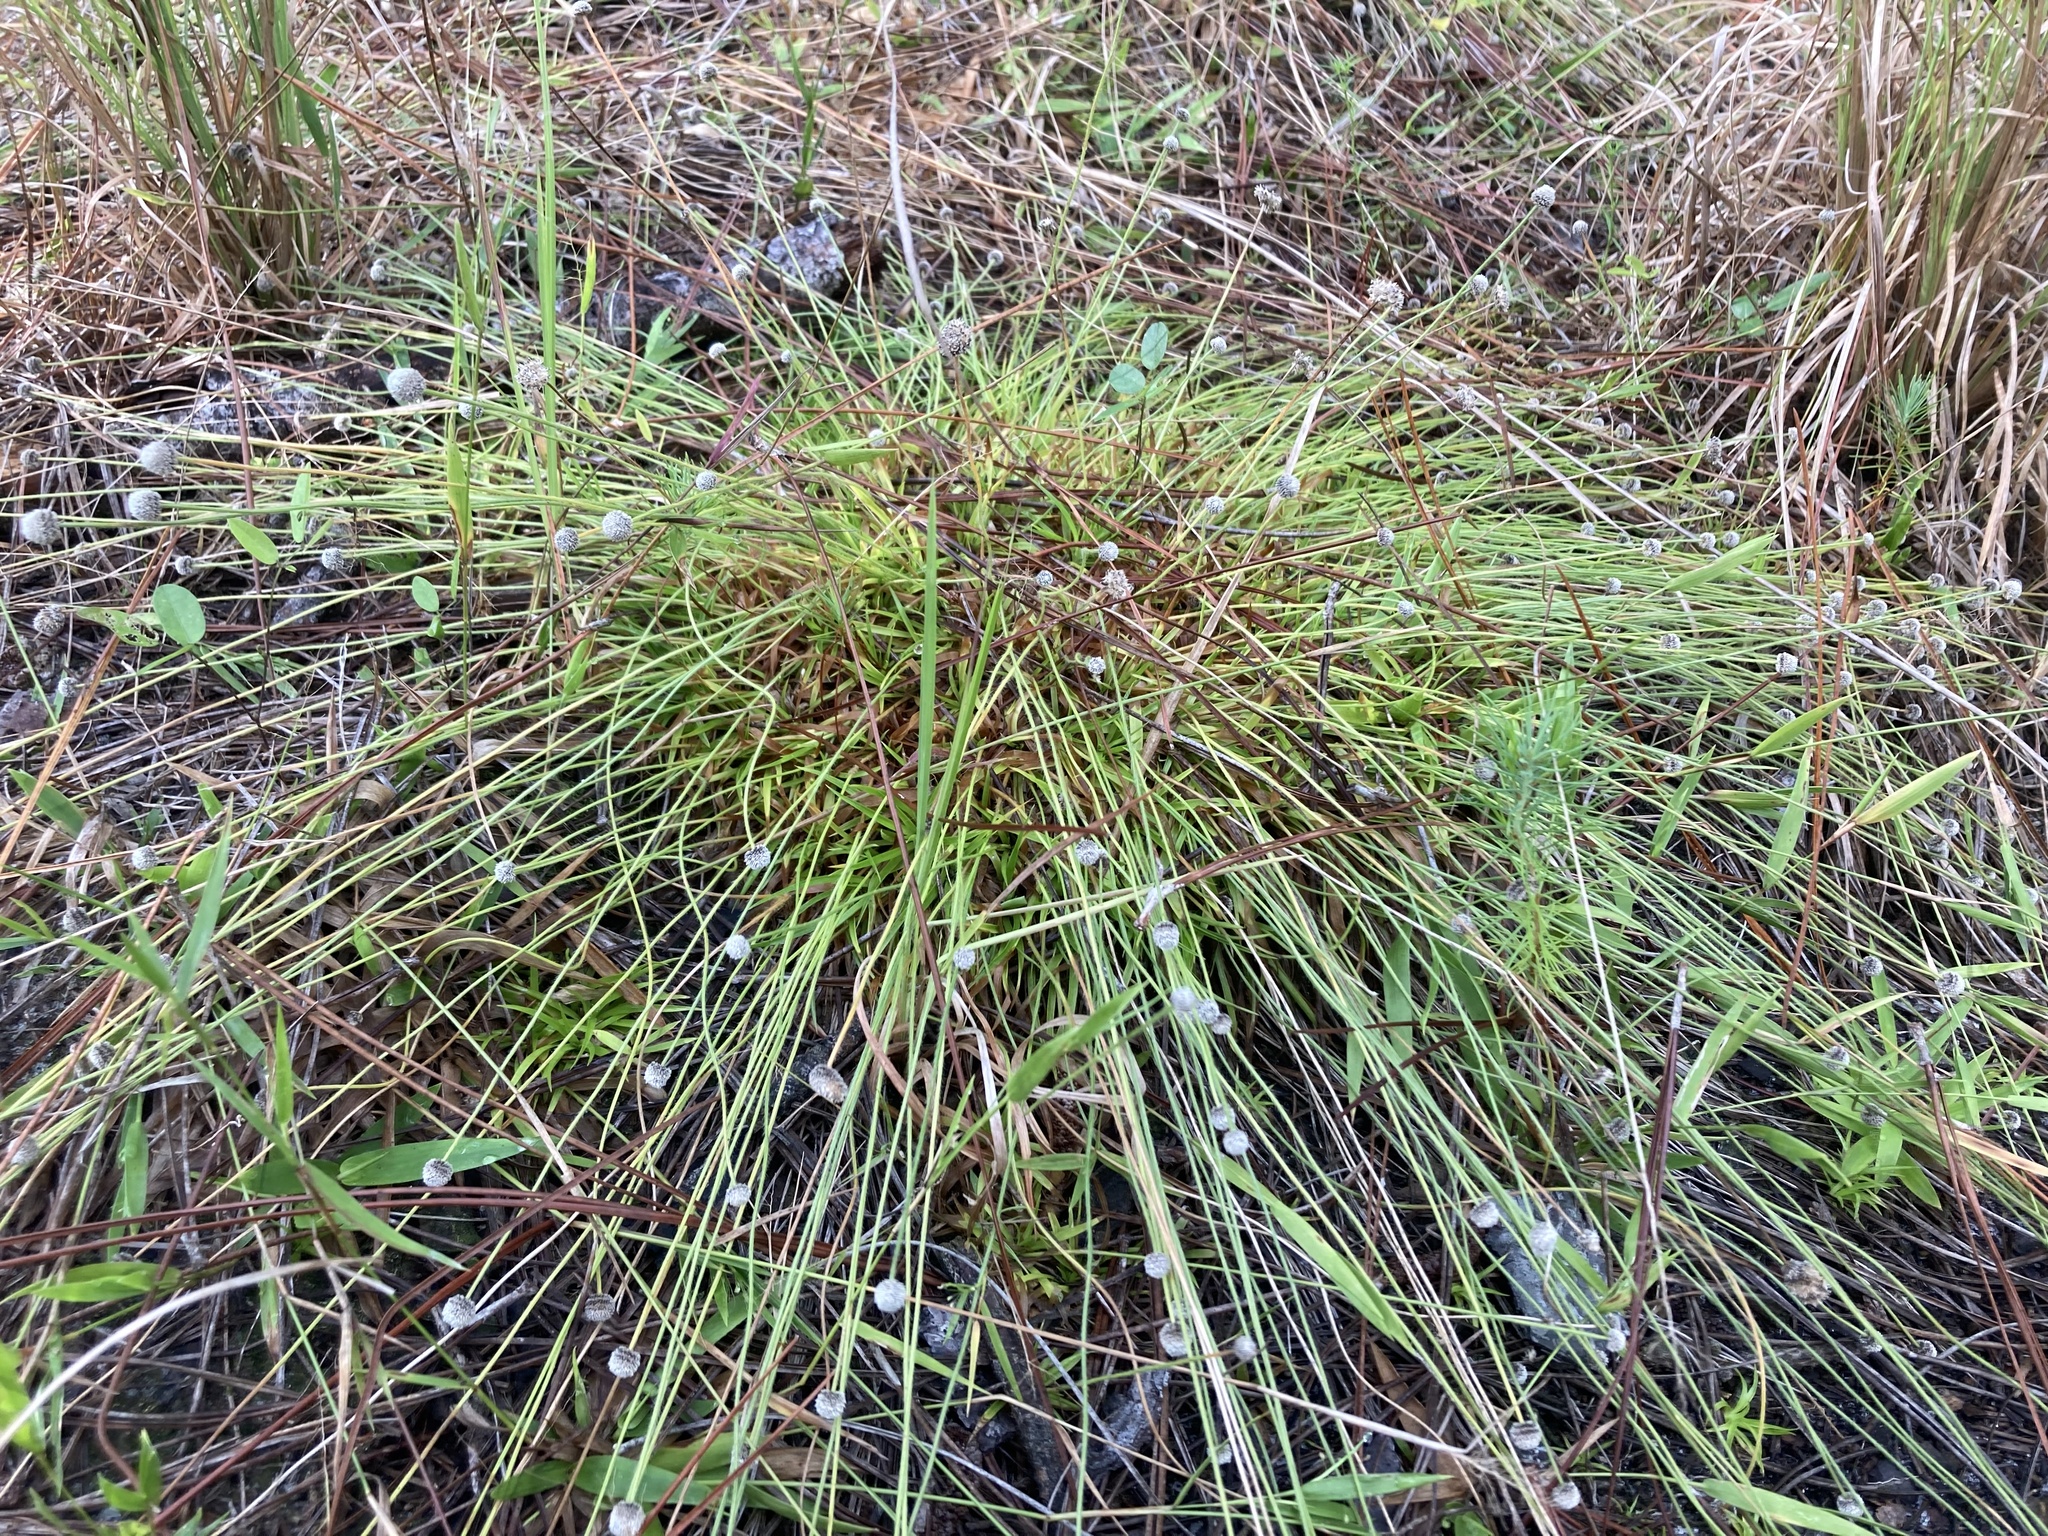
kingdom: Plantae
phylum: Tracheophyta
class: Liliopsida
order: Poales
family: Eriocaulaceae
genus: Paepalanthus
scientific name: Paepalanthus anceps
